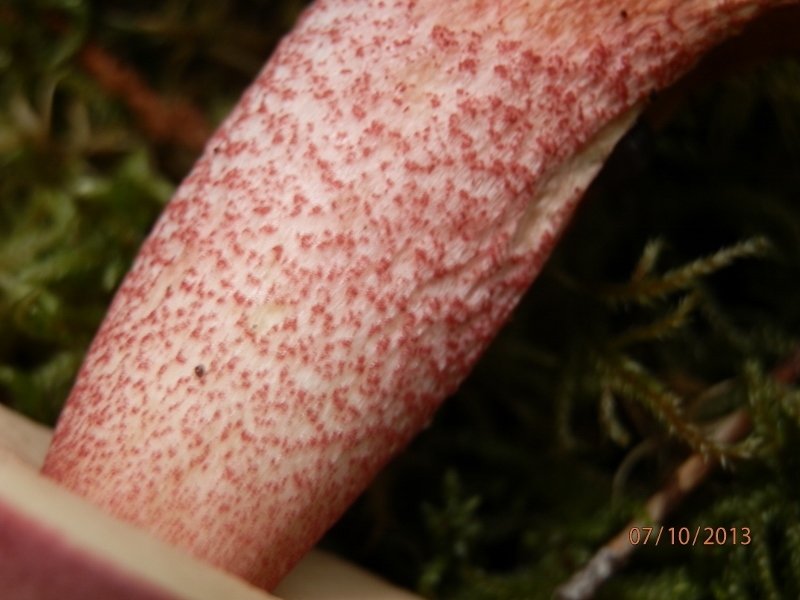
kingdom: Fungi
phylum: Basidiomycota
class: Agaricomycetes
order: Boletales
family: Boletaceae
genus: Harrya
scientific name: Harrya chromipes
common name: Chrome-footed bolete
